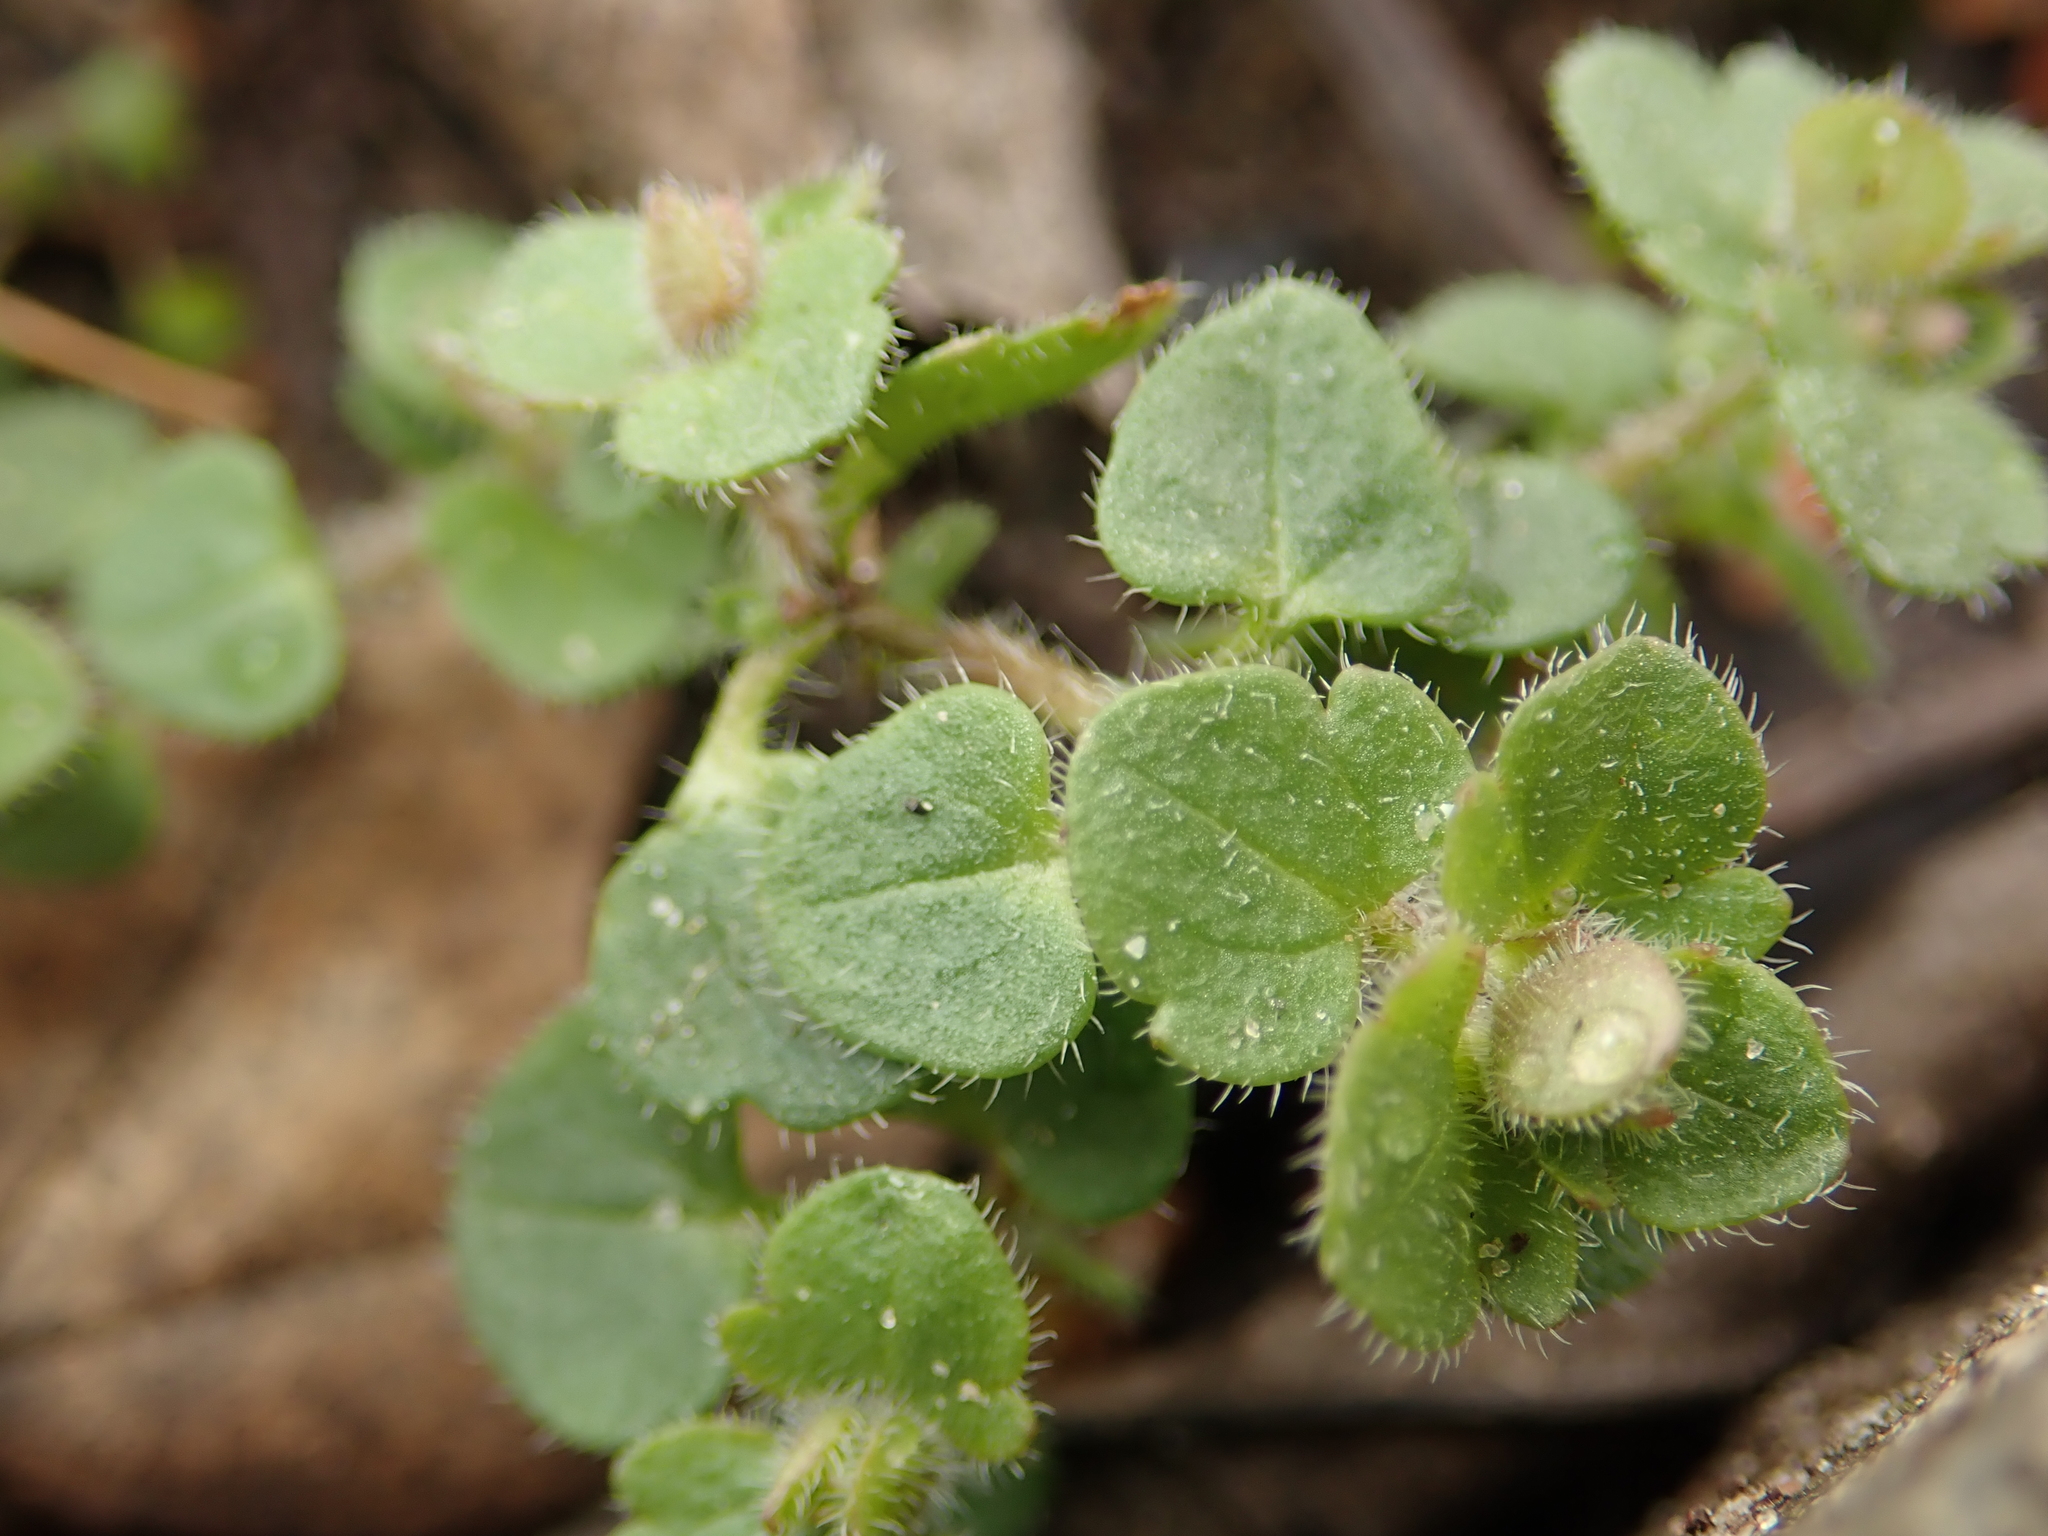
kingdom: Plantae
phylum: Tracheophyta
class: Magnoliopsida
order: Lamiales
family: Plantaginaceae
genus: Veronica
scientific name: Veronica hederifolia
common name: Ivy-leaved speedwell
